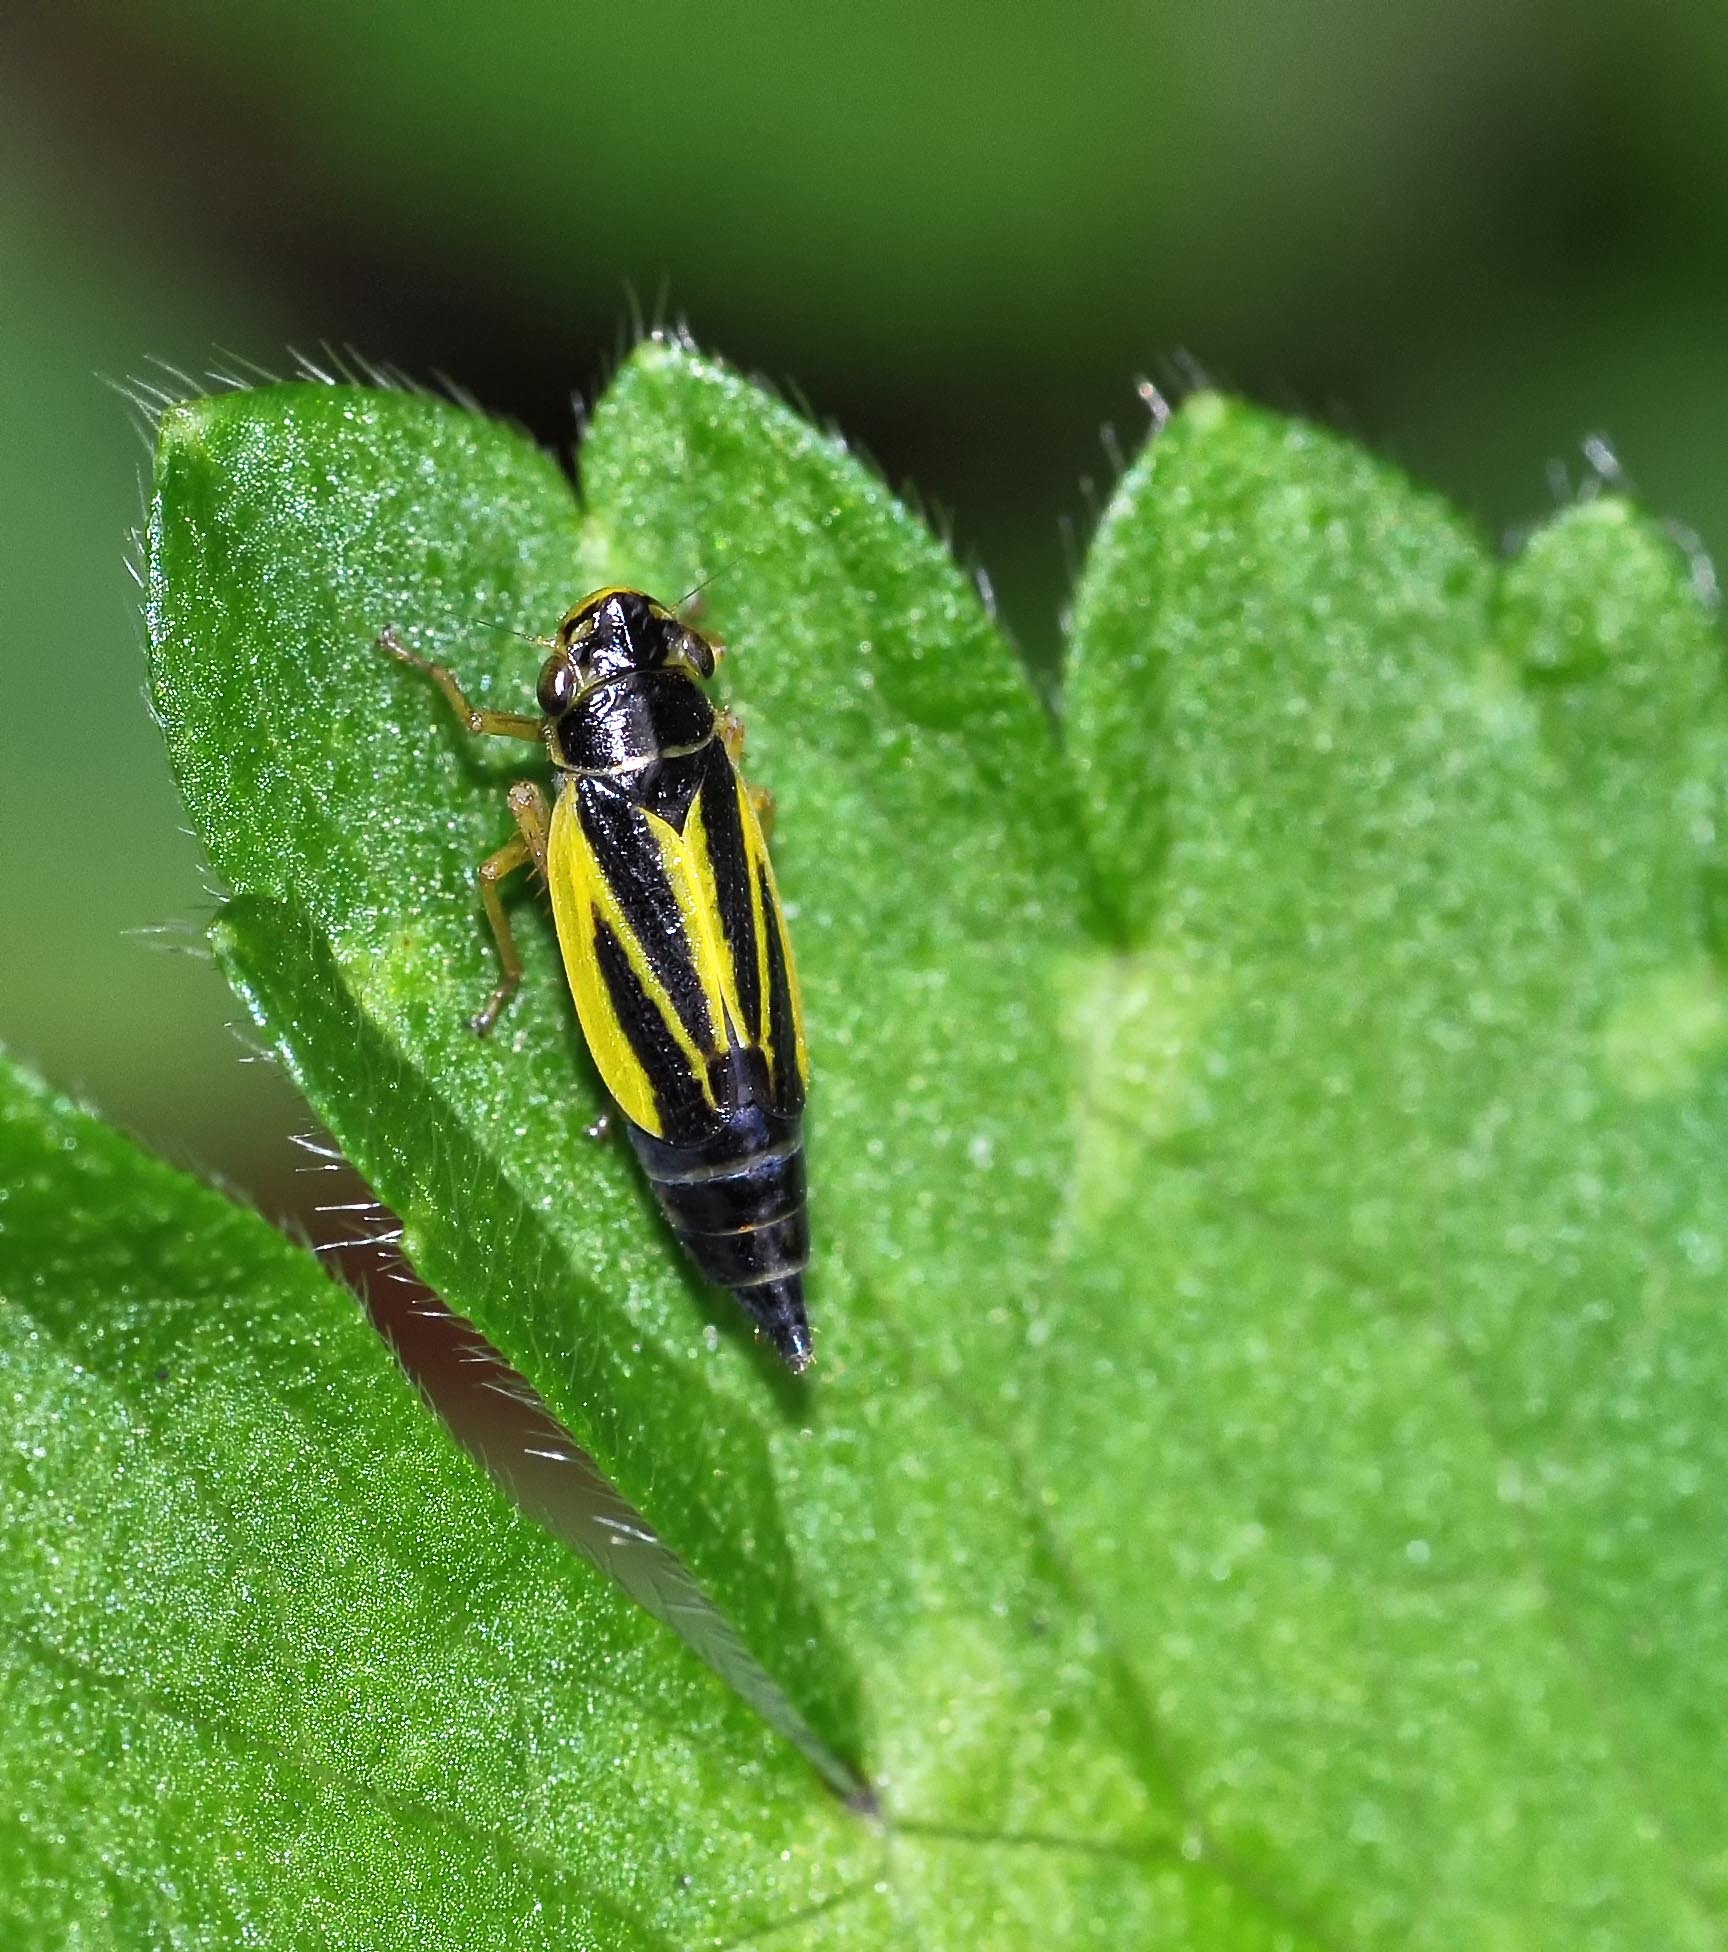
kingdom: Animalia
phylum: Arthropoda
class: Insecta
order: Hemiptera
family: Cicadellidae
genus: Evacanthus
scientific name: Evacanthus interruptus
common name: Leafhopper
